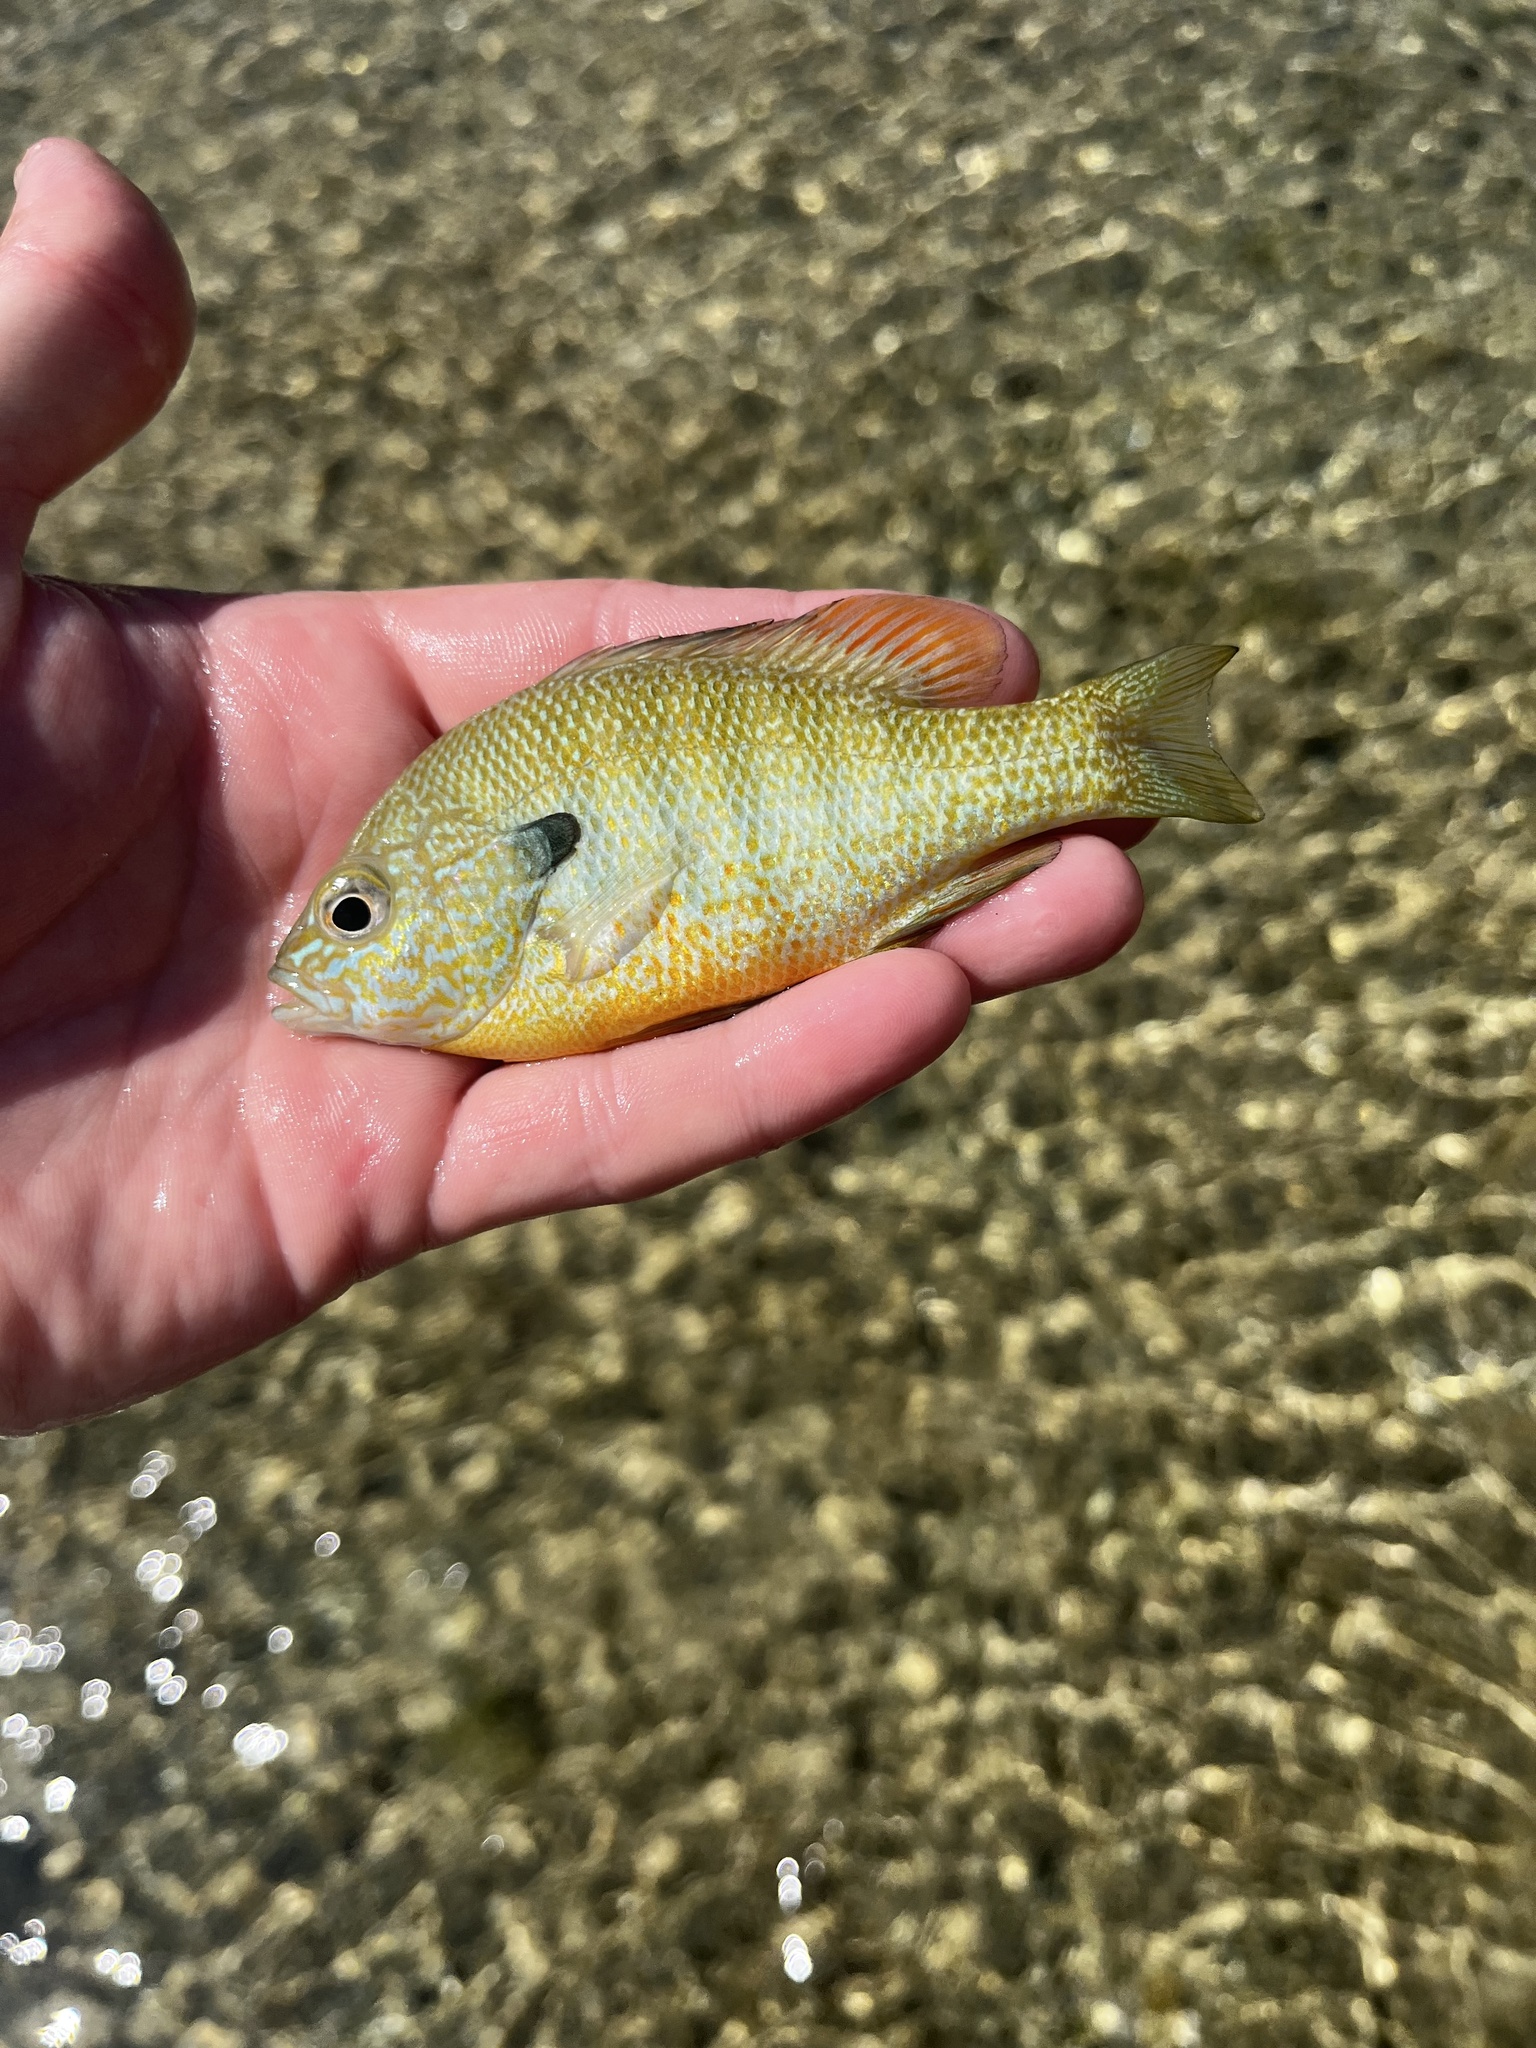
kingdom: Animalia
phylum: Chordata
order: Perciformes
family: Centrarchidae
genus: Lepomis
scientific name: Lepomis aquilensis
